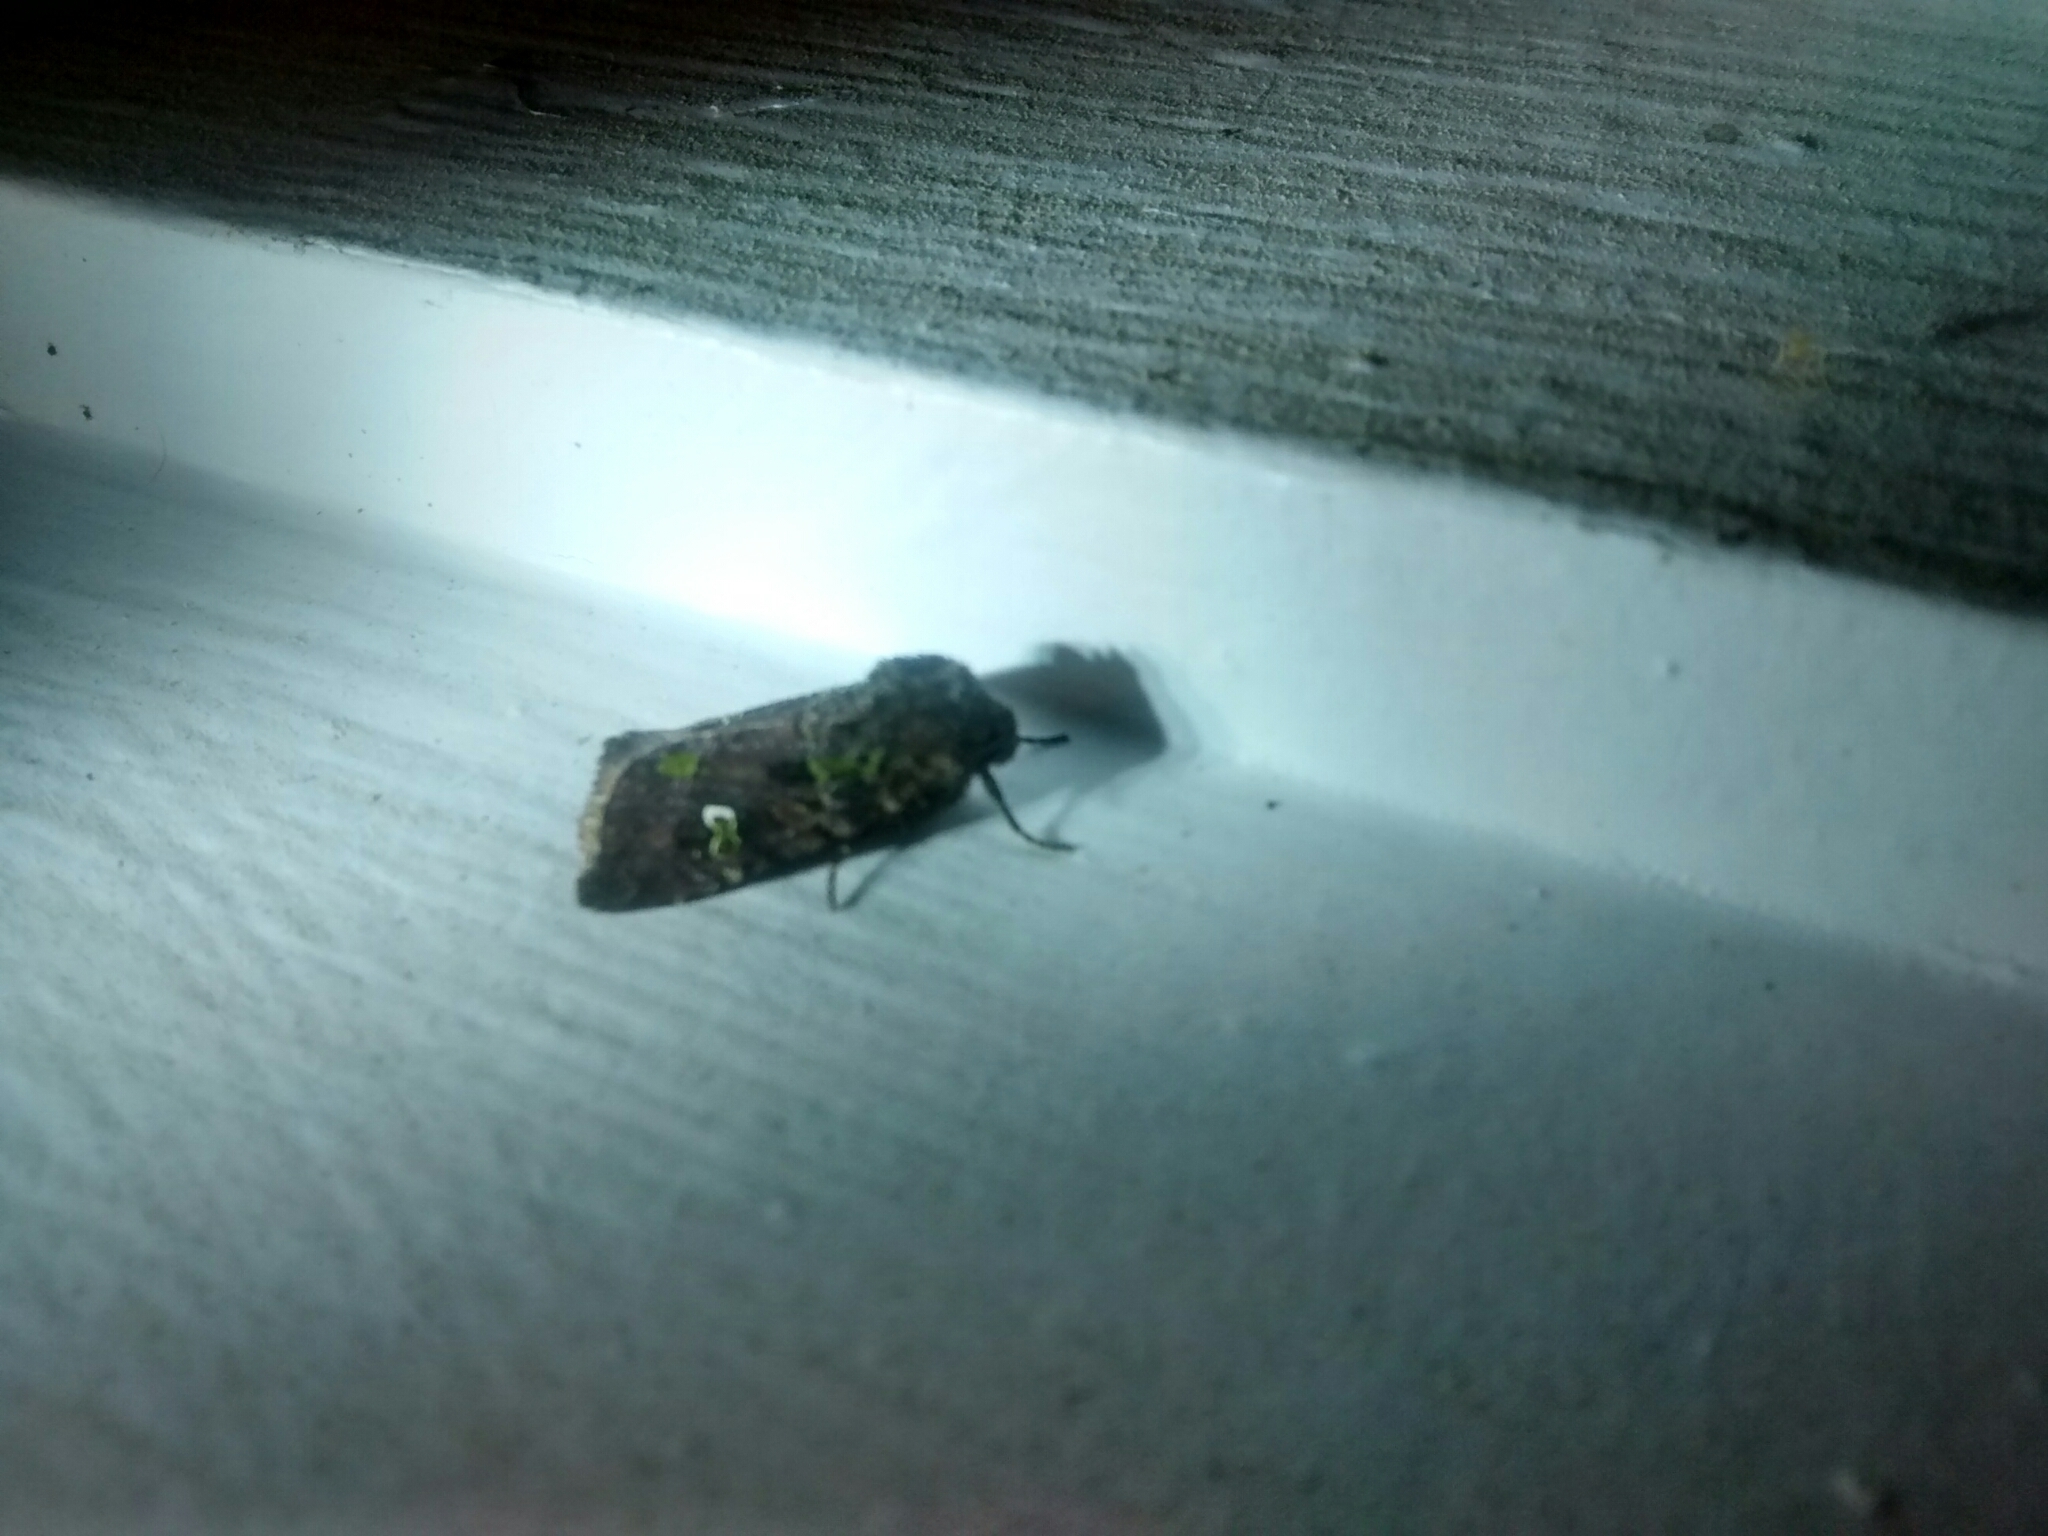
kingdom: Animalia
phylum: Arthropoda
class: Insecta
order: Lepidoptera
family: Noctuidae
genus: Lacinipolia
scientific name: Lacinipolia renigera
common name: Kidney-spotted minor
